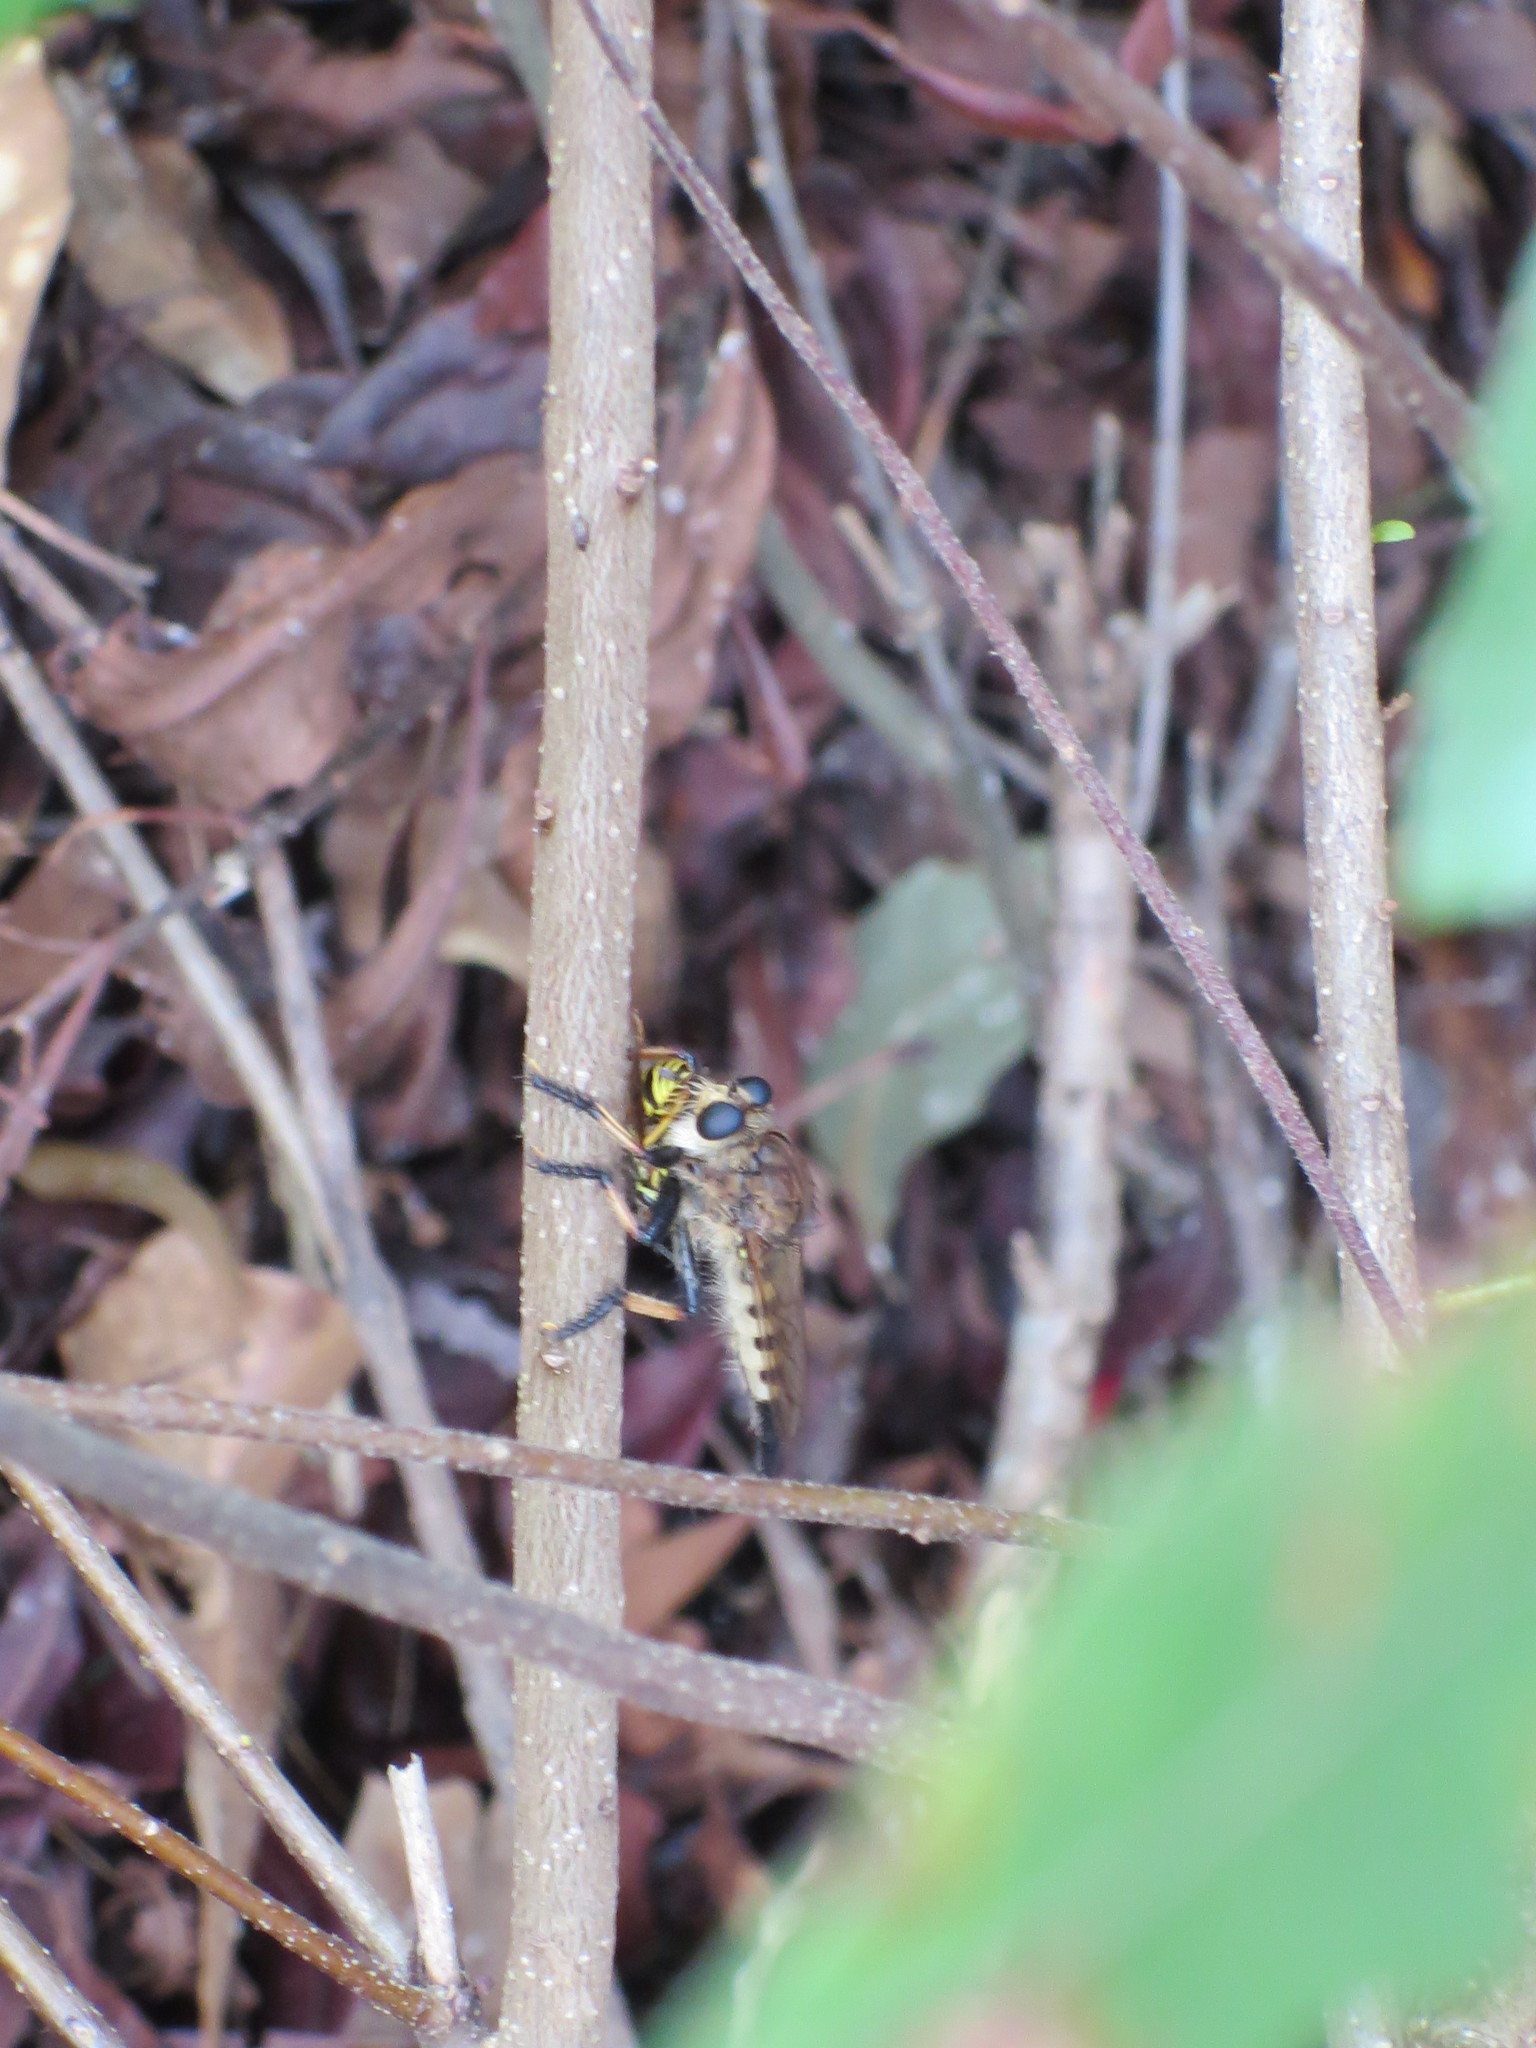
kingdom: Animalia
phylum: Arthropoda
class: Insecta
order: Hymenoptera
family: Vespidae
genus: Vespula
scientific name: Vespula
